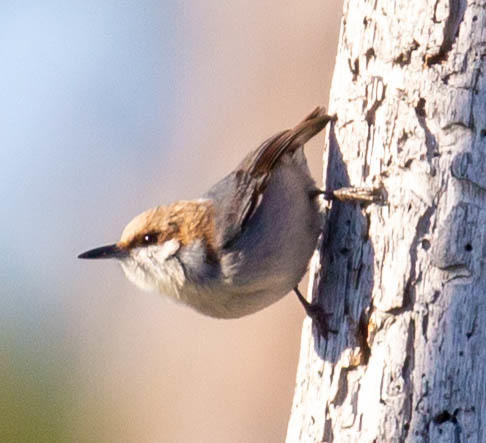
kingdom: Animalia
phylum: Chordata
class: Aves
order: Passeriformes
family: Sittidae
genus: Sitta
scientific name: Sitta pusilla
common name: Brown-headed nuthatch
